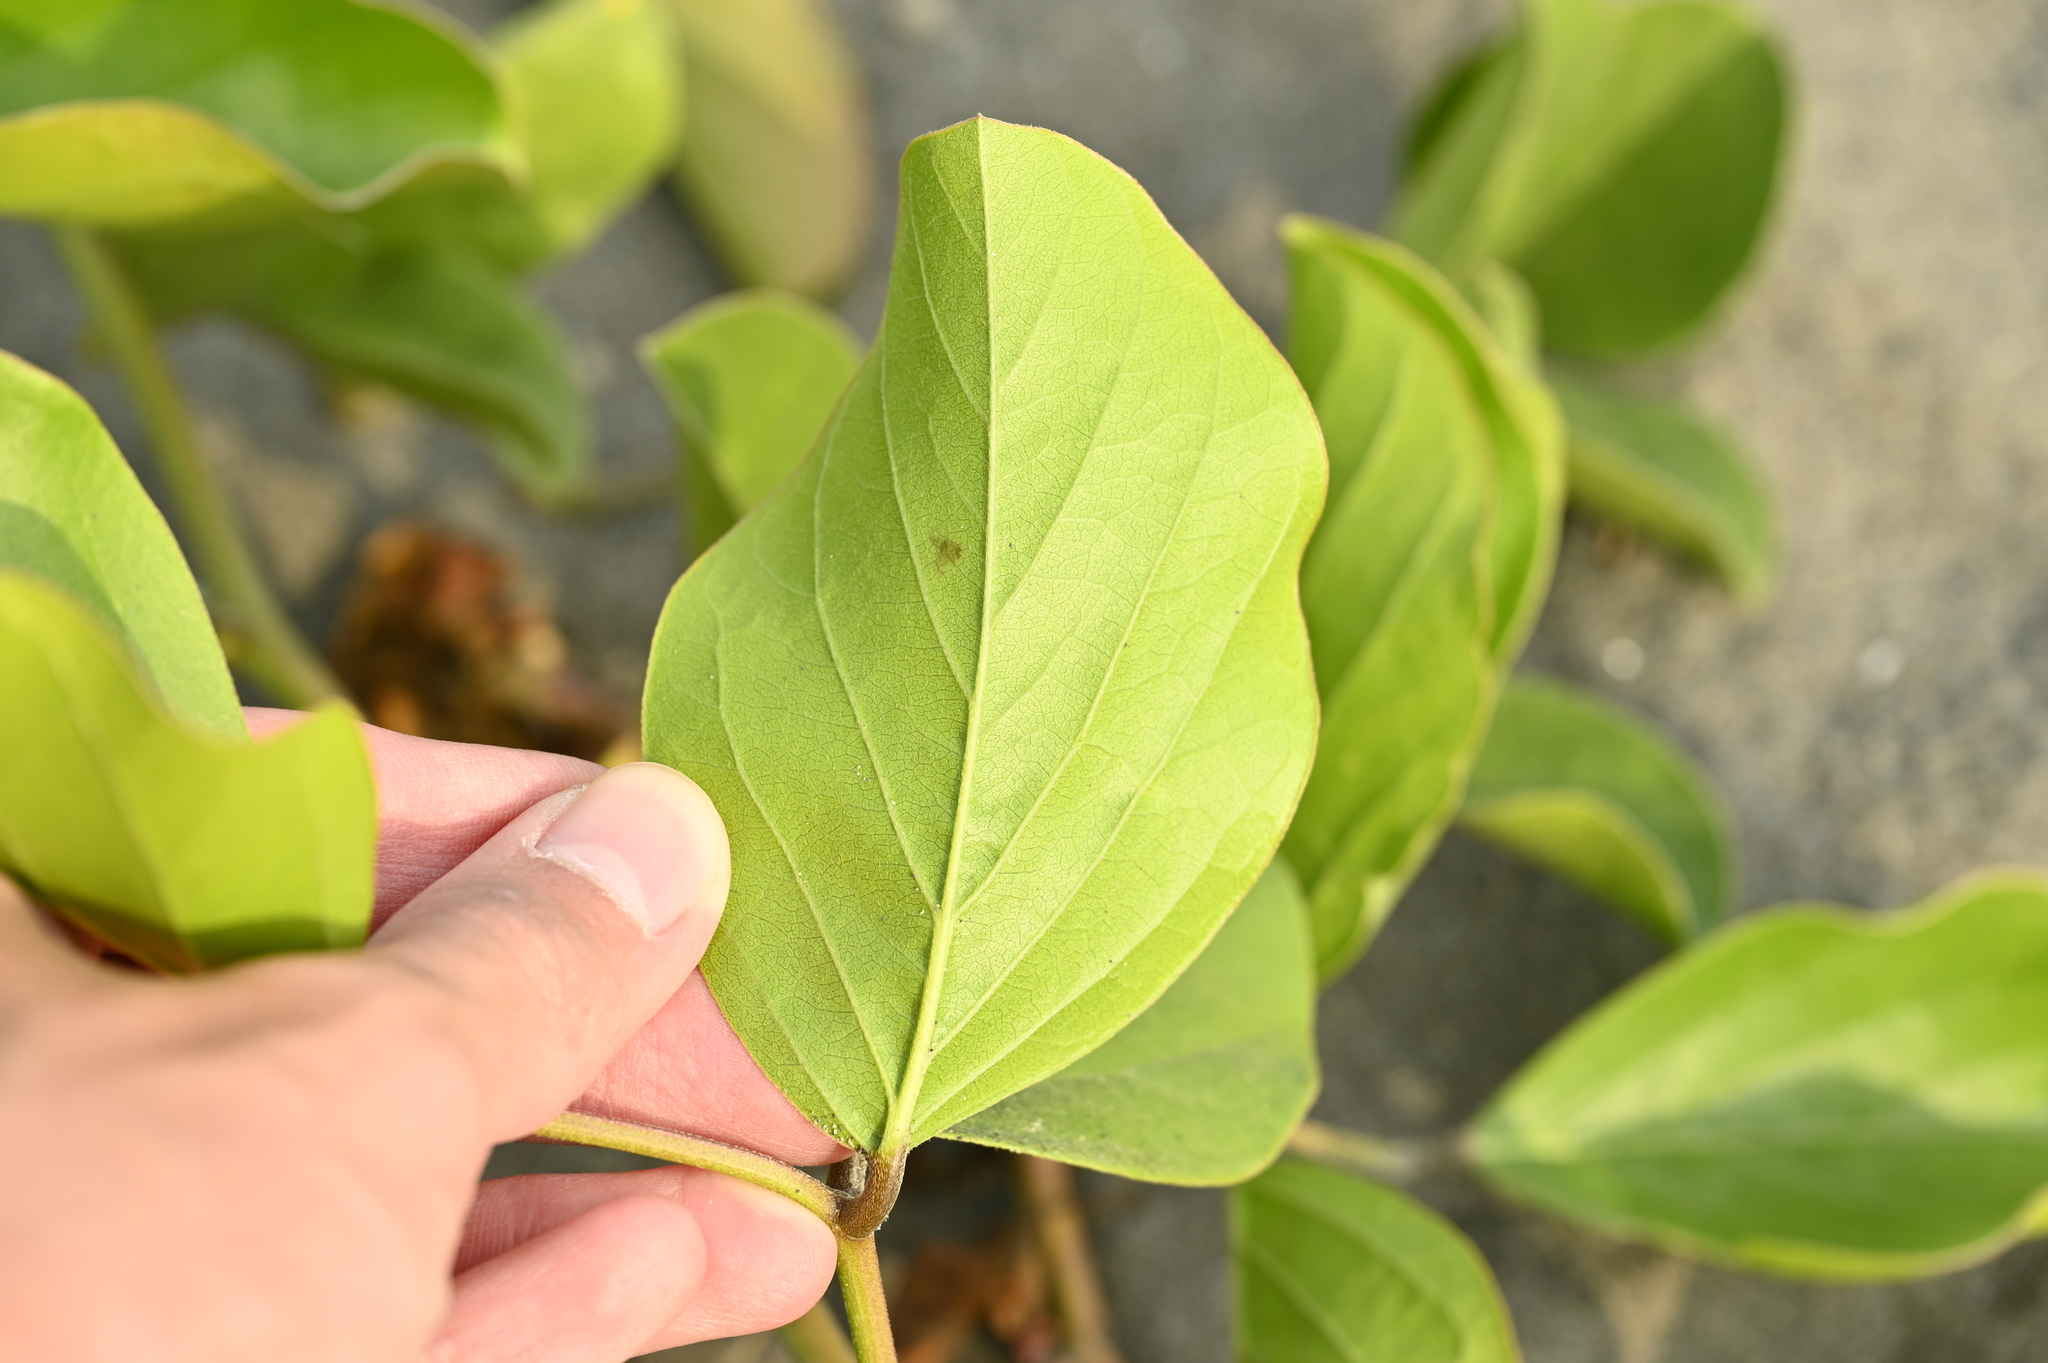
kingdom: Plantae
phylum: Tracheophyta
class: Magnoliopsida
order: Fabales
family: Fabaceae
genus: Canavalia
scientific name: Canavalia rosea
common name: Beach-bean
